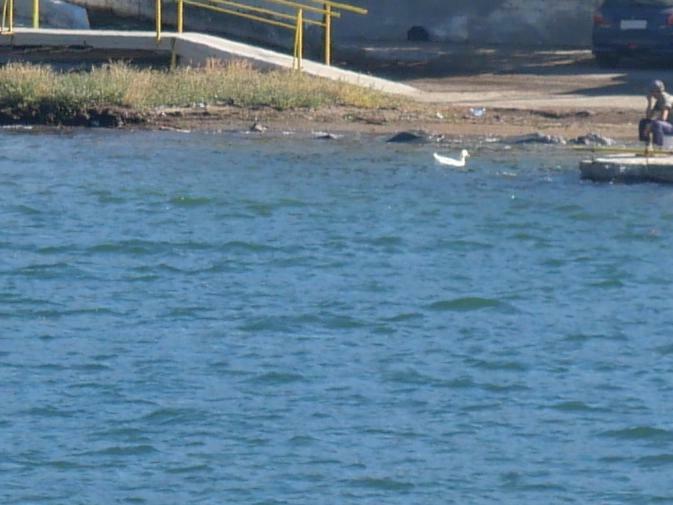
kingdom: Animalia
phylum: Chordata
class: Aves
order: Anseriformes
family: Anatidae
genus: Anas
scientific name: Anas platyrhynchos
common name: Mallard
